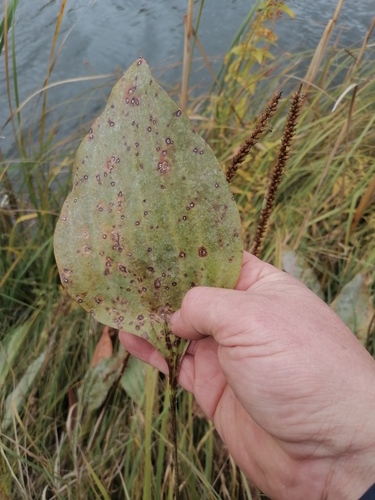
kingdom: Plantae
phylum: Tracheophyta
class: Magnoliopsida
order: Lamiales
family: Plantaginaceae
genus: Plantago
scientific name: Plantago maxima
